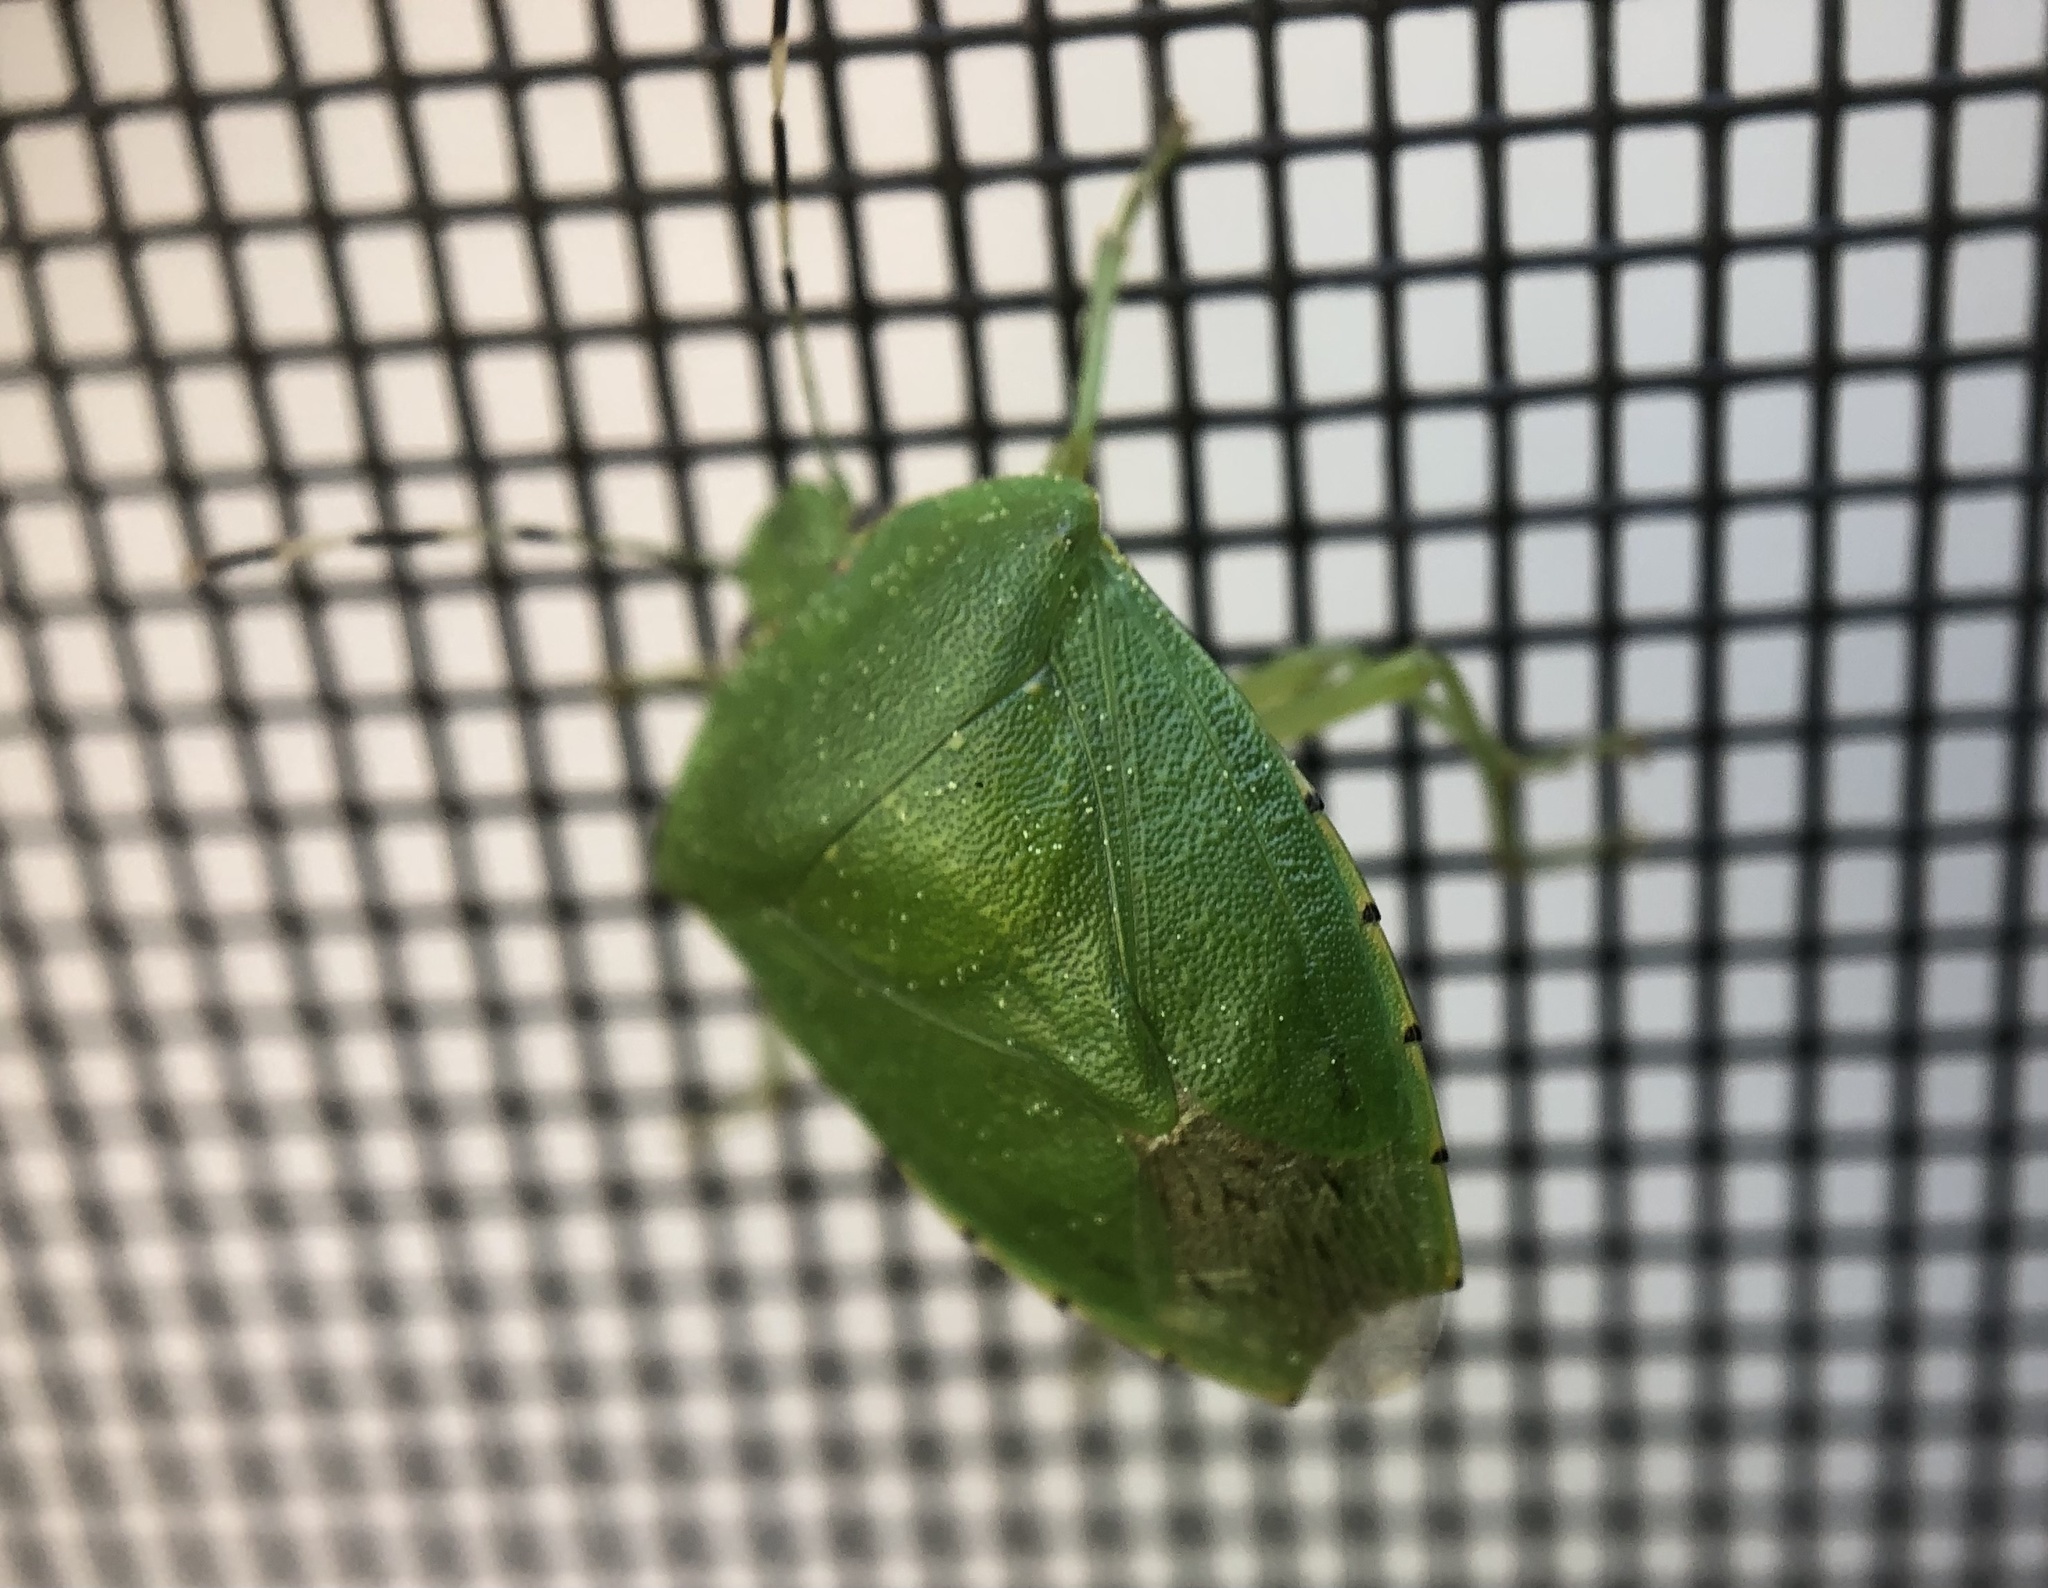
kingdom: Animalia
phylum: Arthropoda
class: Insecta
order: Hemiptera
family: Pentatomidae
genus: Chinavia
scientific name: Chinavia hilaris
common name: Green stink bug
